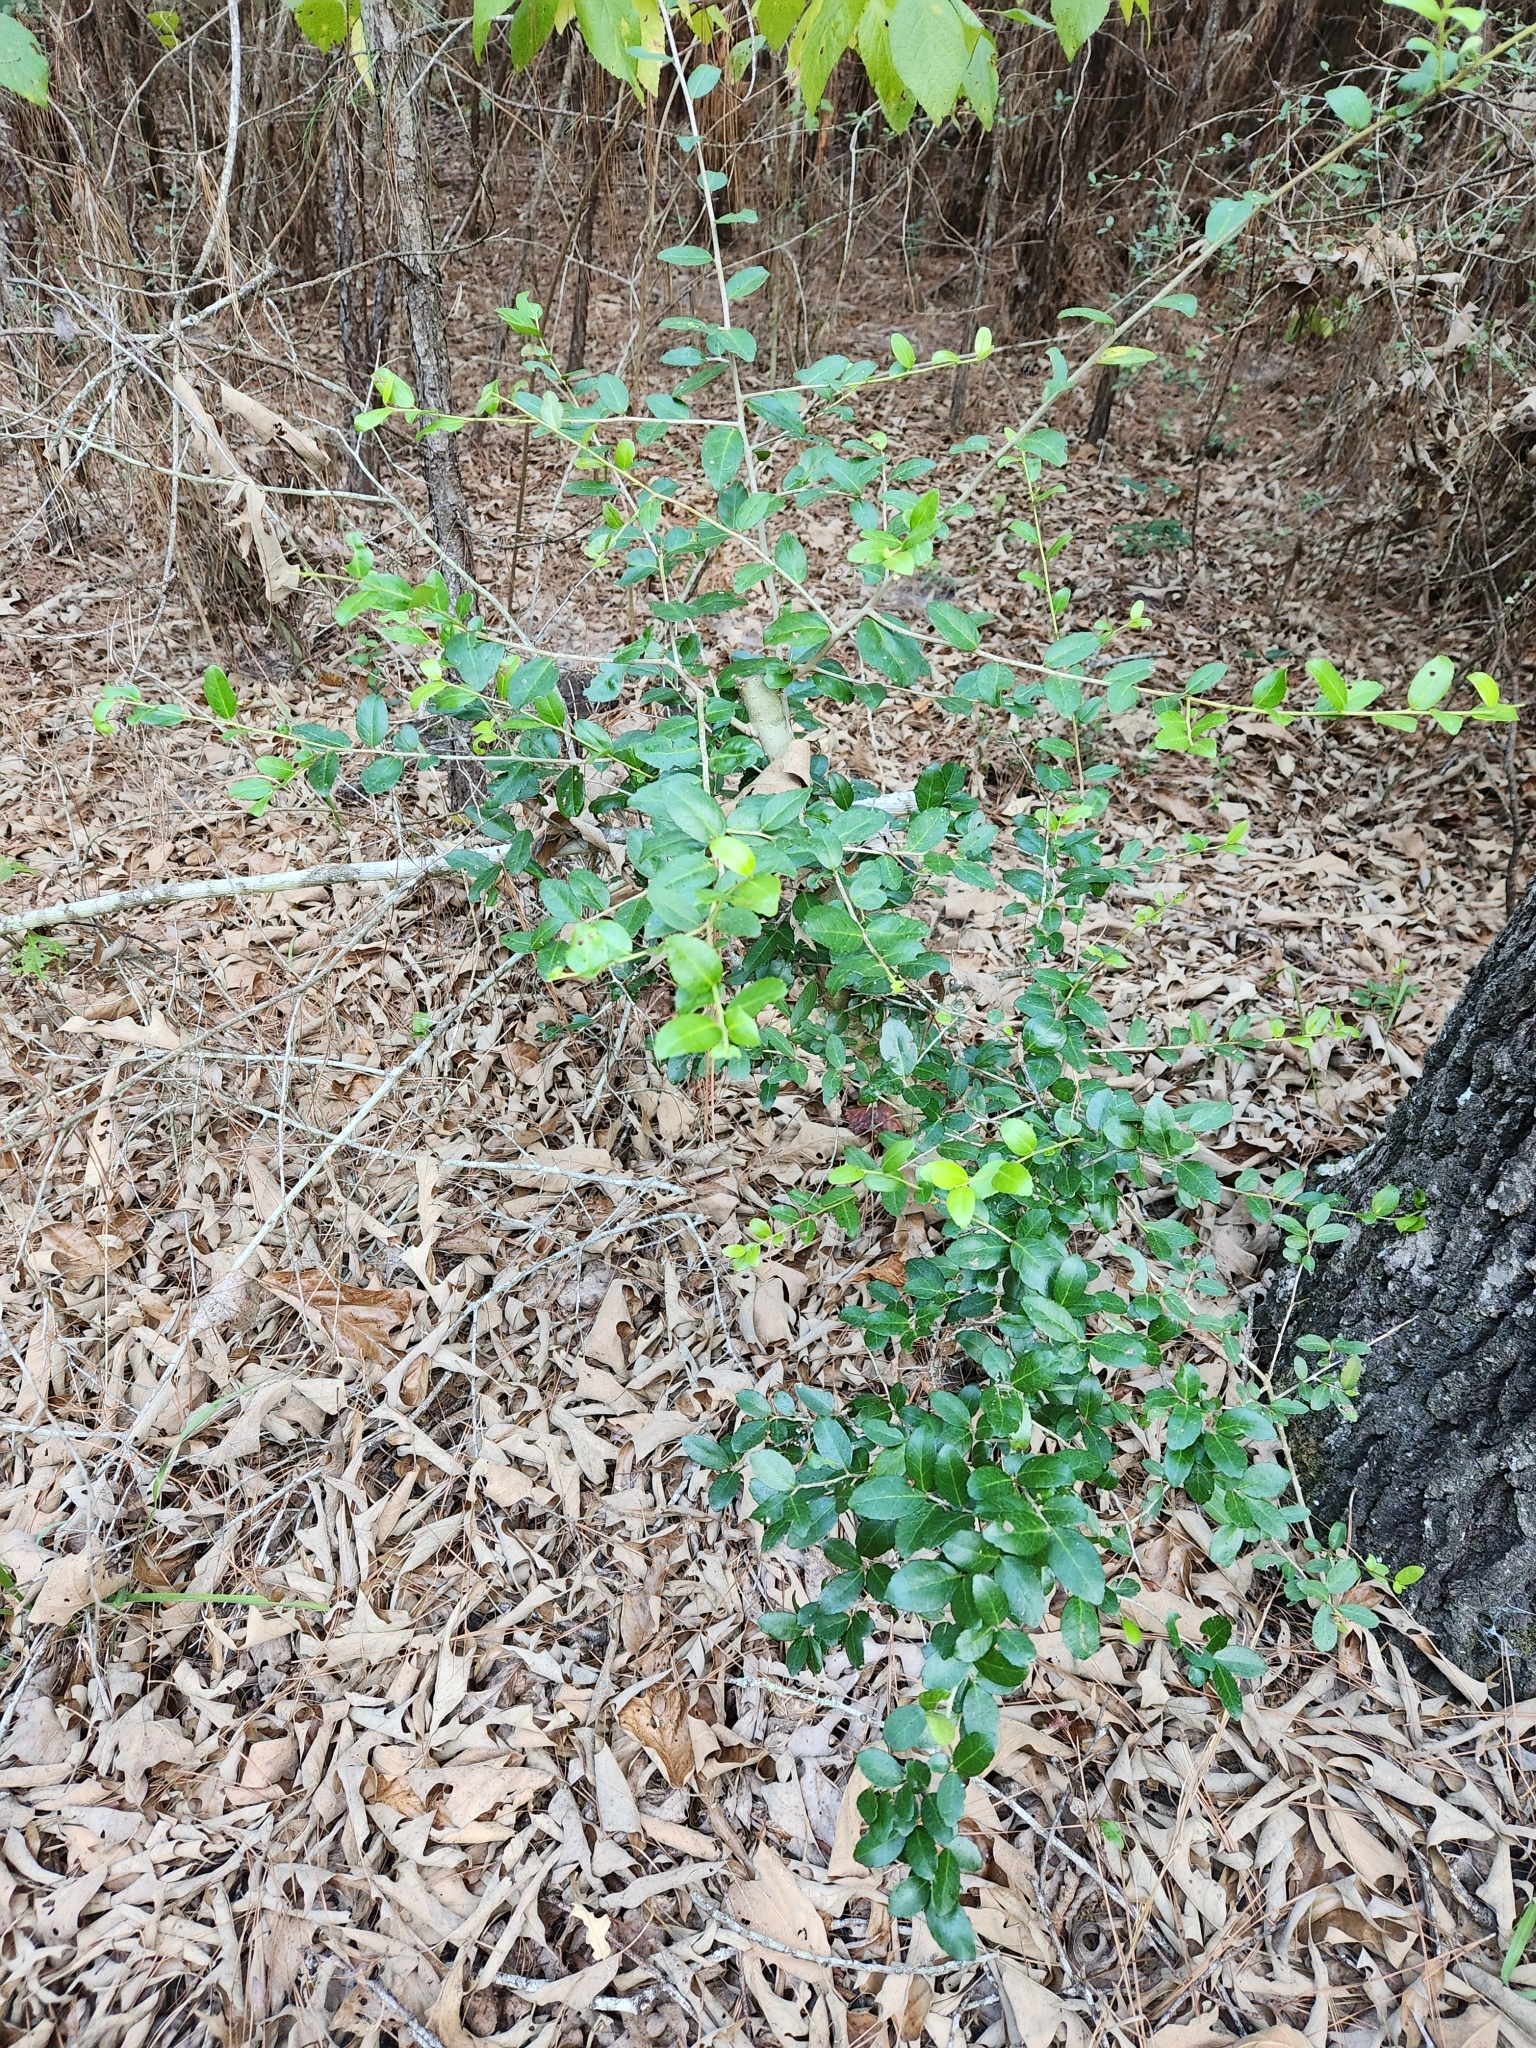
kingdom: Plantae
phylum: Tracheophyta
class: Magnoliopsida
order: Aquifoliales
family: Aquifoliaceae
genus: Ilex
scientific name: Ilex vomitoria
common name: Yaupon holly
